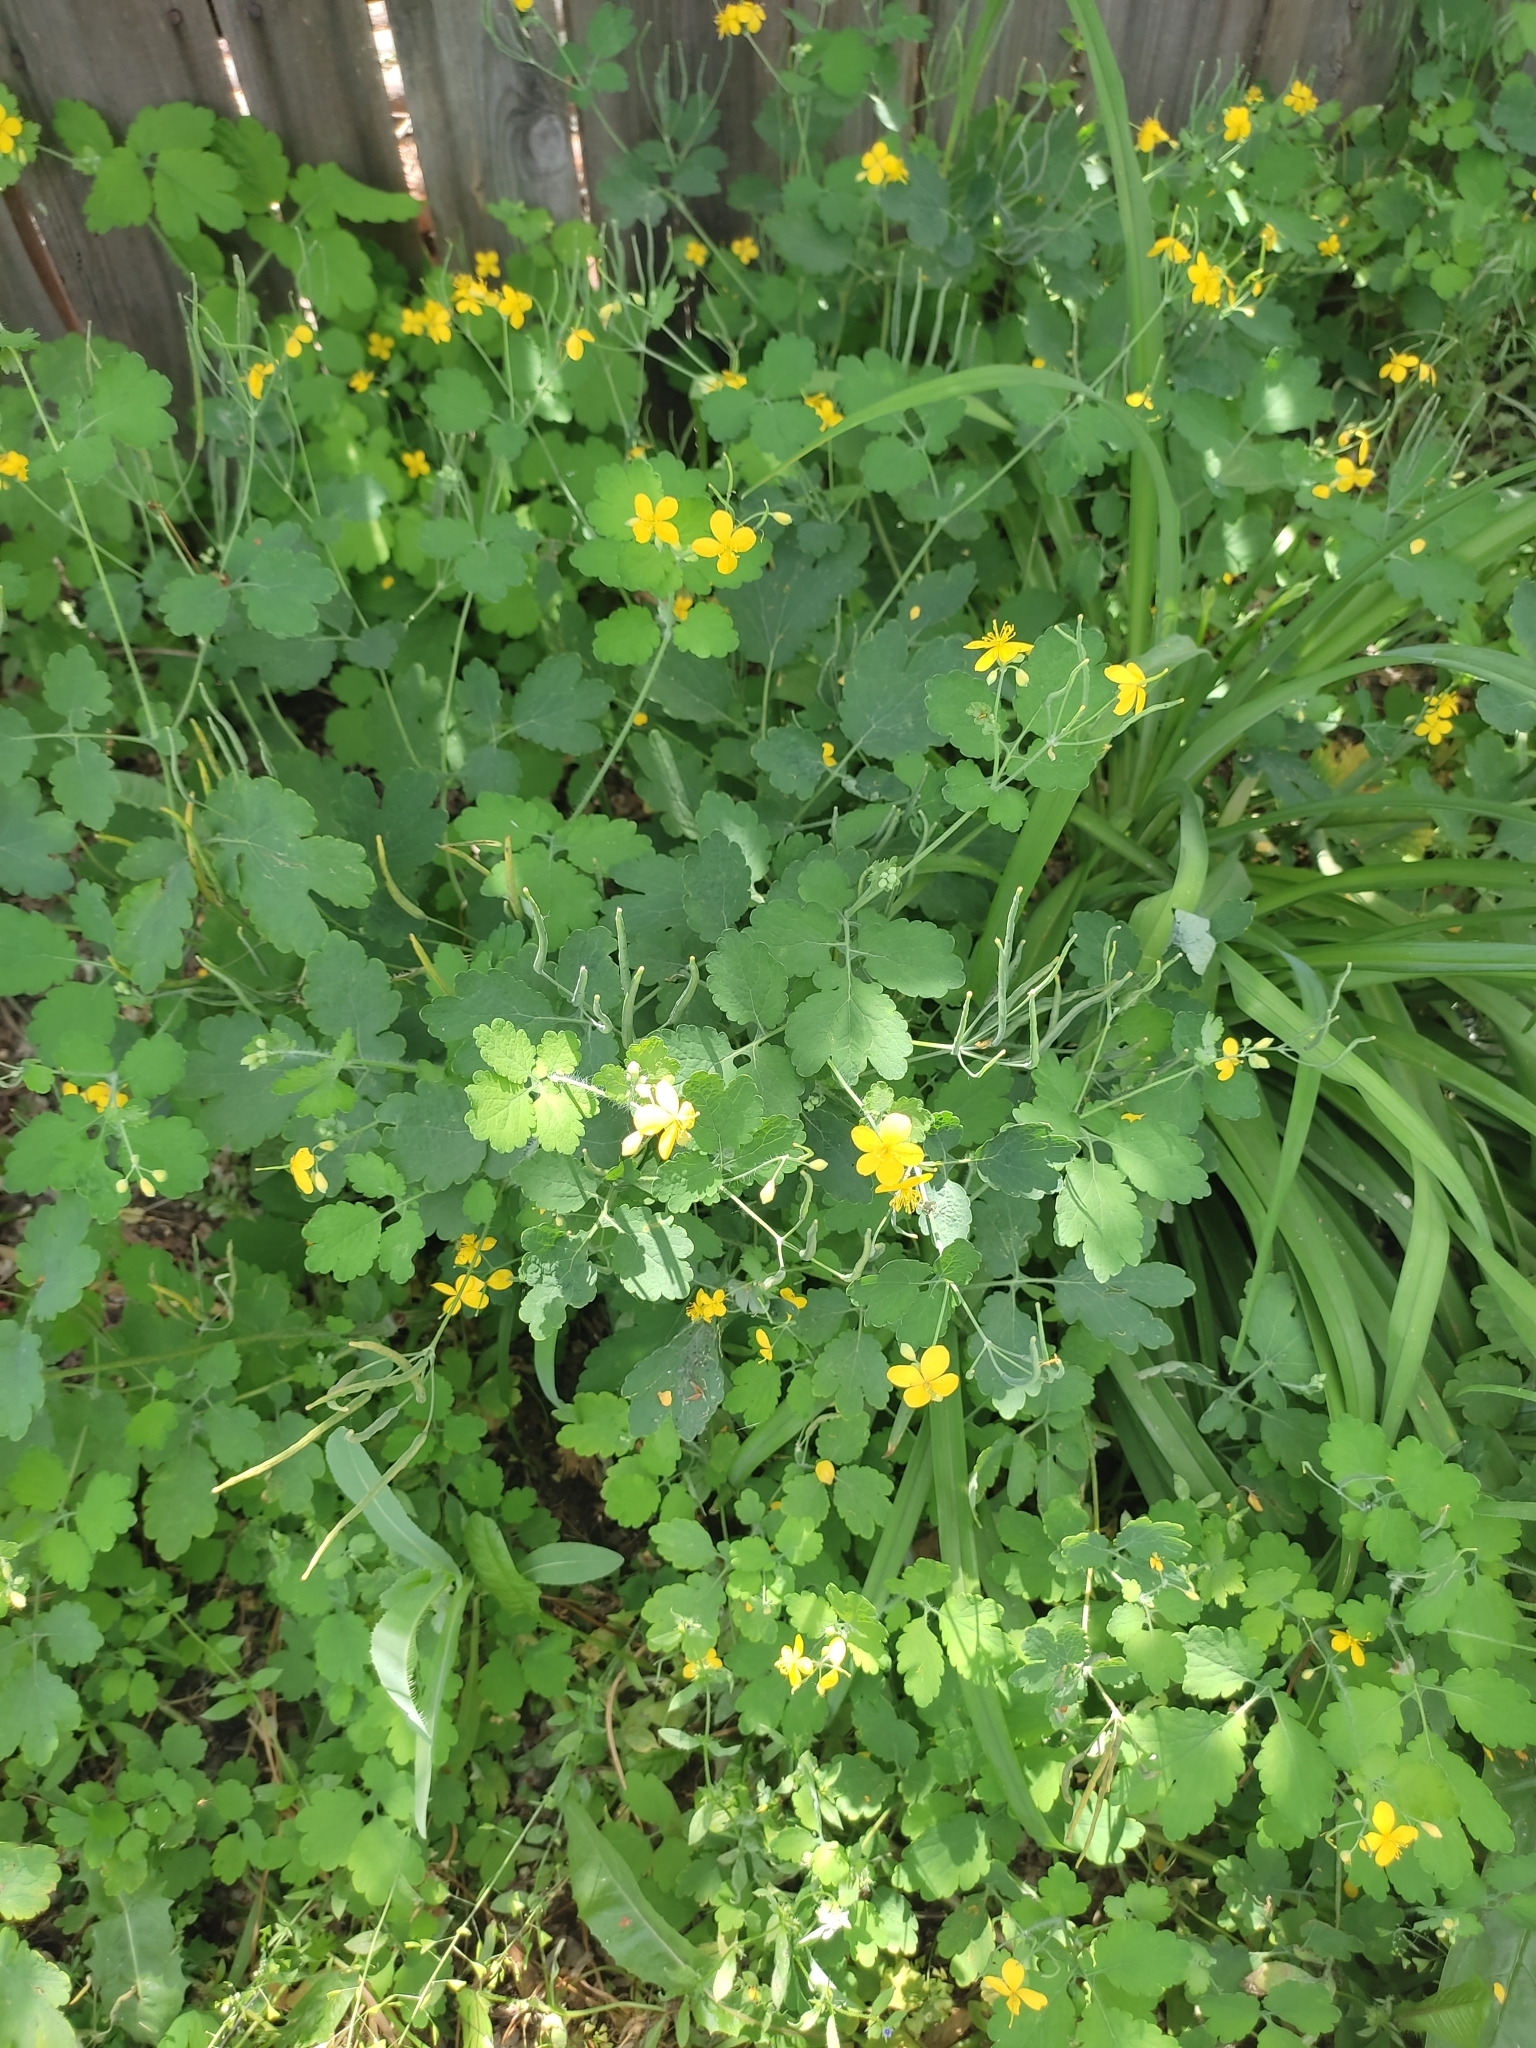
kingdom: Plantae
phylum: Tracheophyta
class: Magnoliopsida
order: Ranunculales
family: Papaveraceae
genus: Chelidonium
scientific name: Chelidonium majus
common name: Greater celandine
